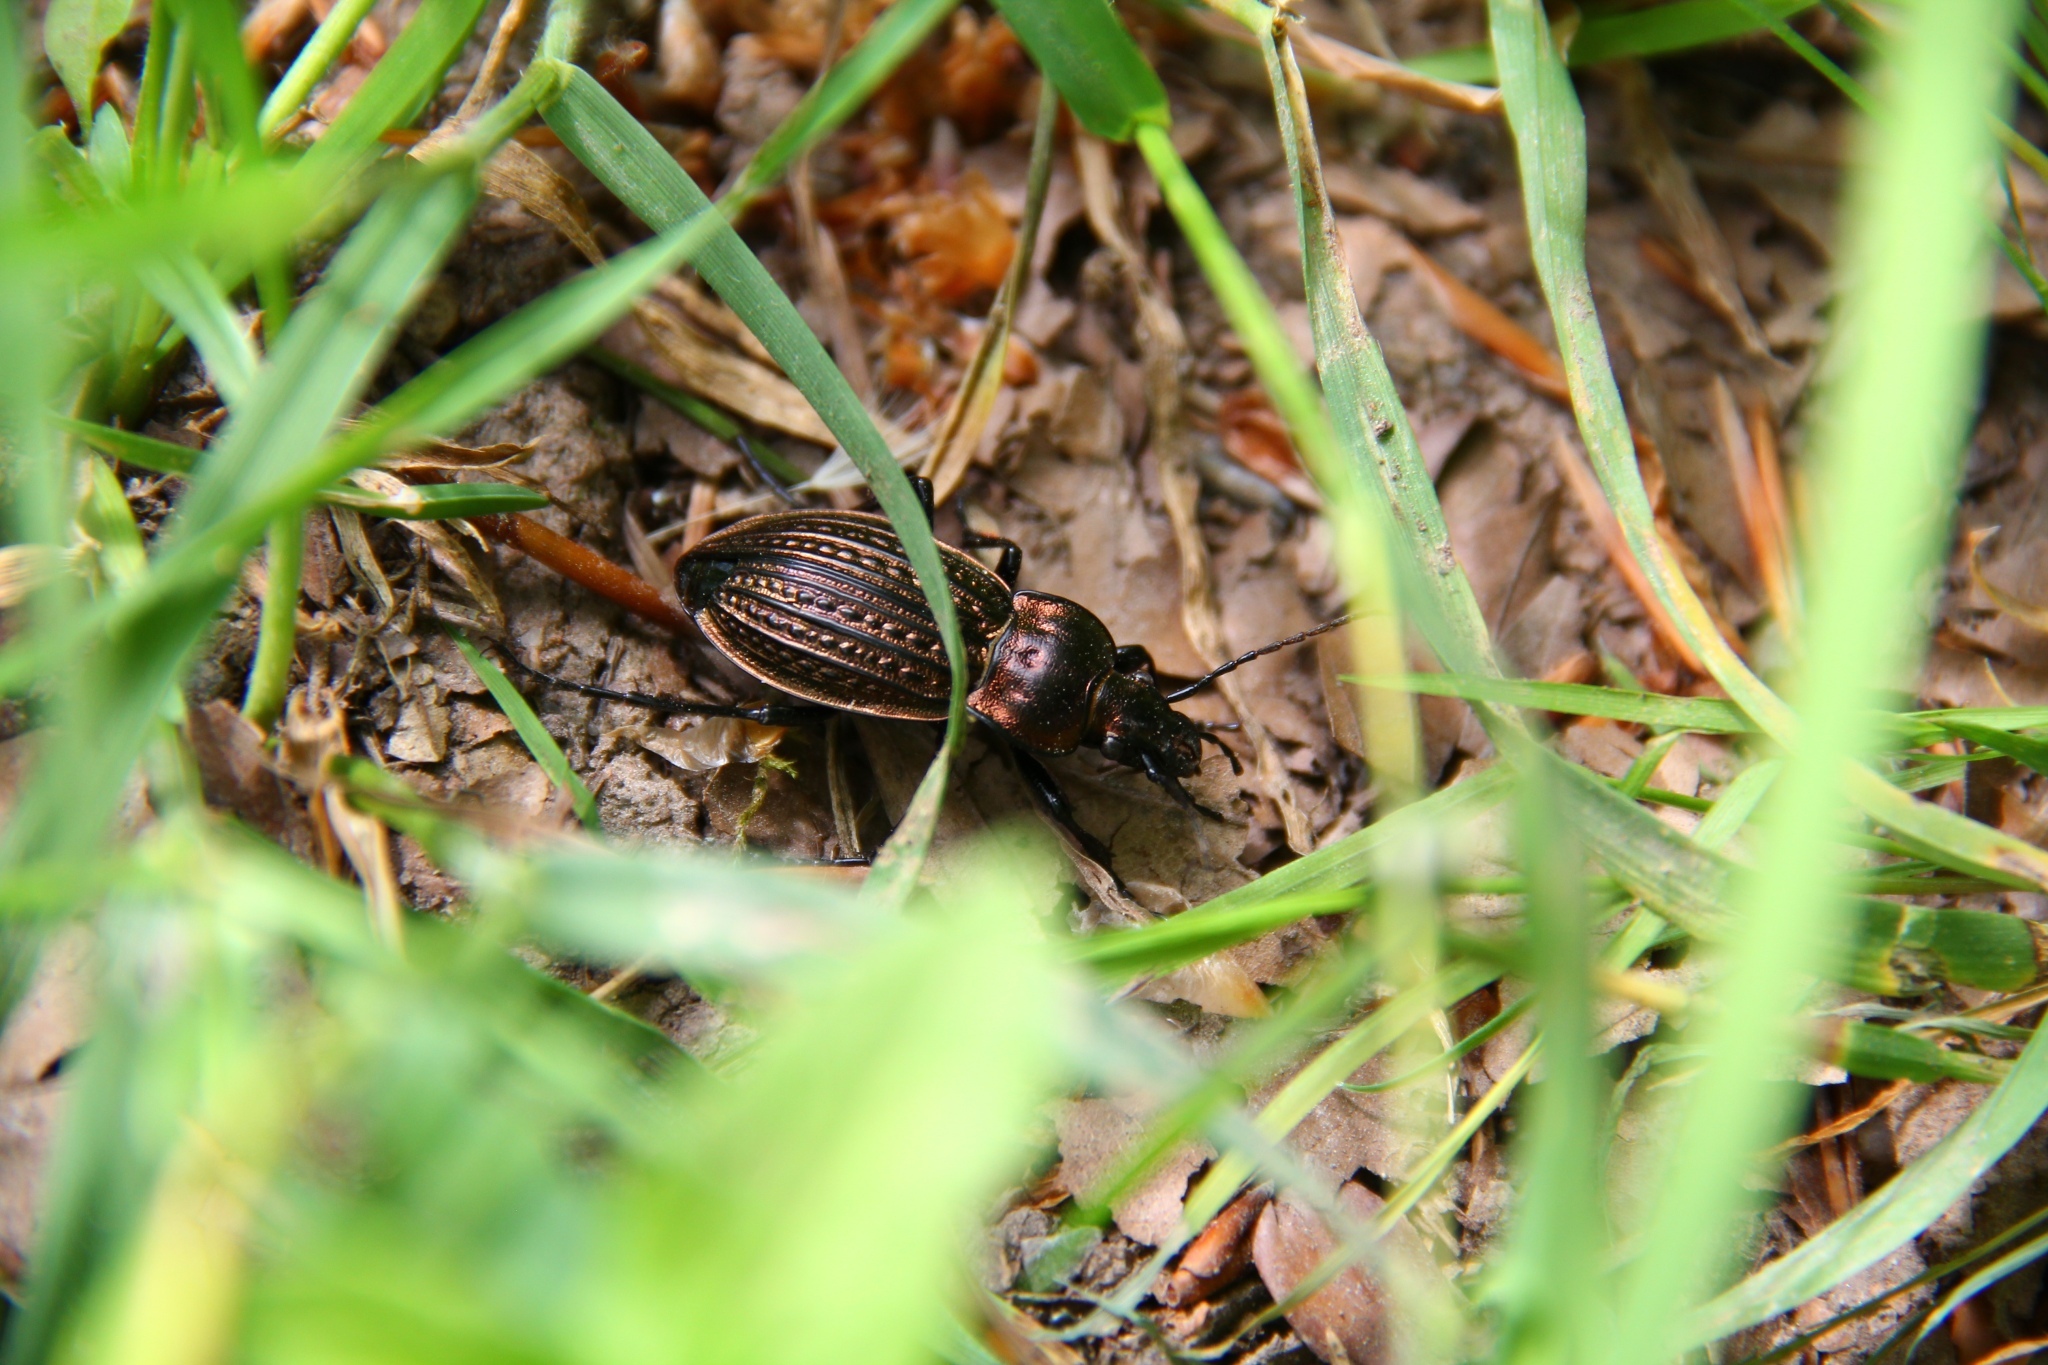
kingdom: Animalia
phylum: Arthropoda
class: Insecta
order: Coleoptera
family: Carabidae
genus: Carabus
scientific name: Carabus ulrichii
